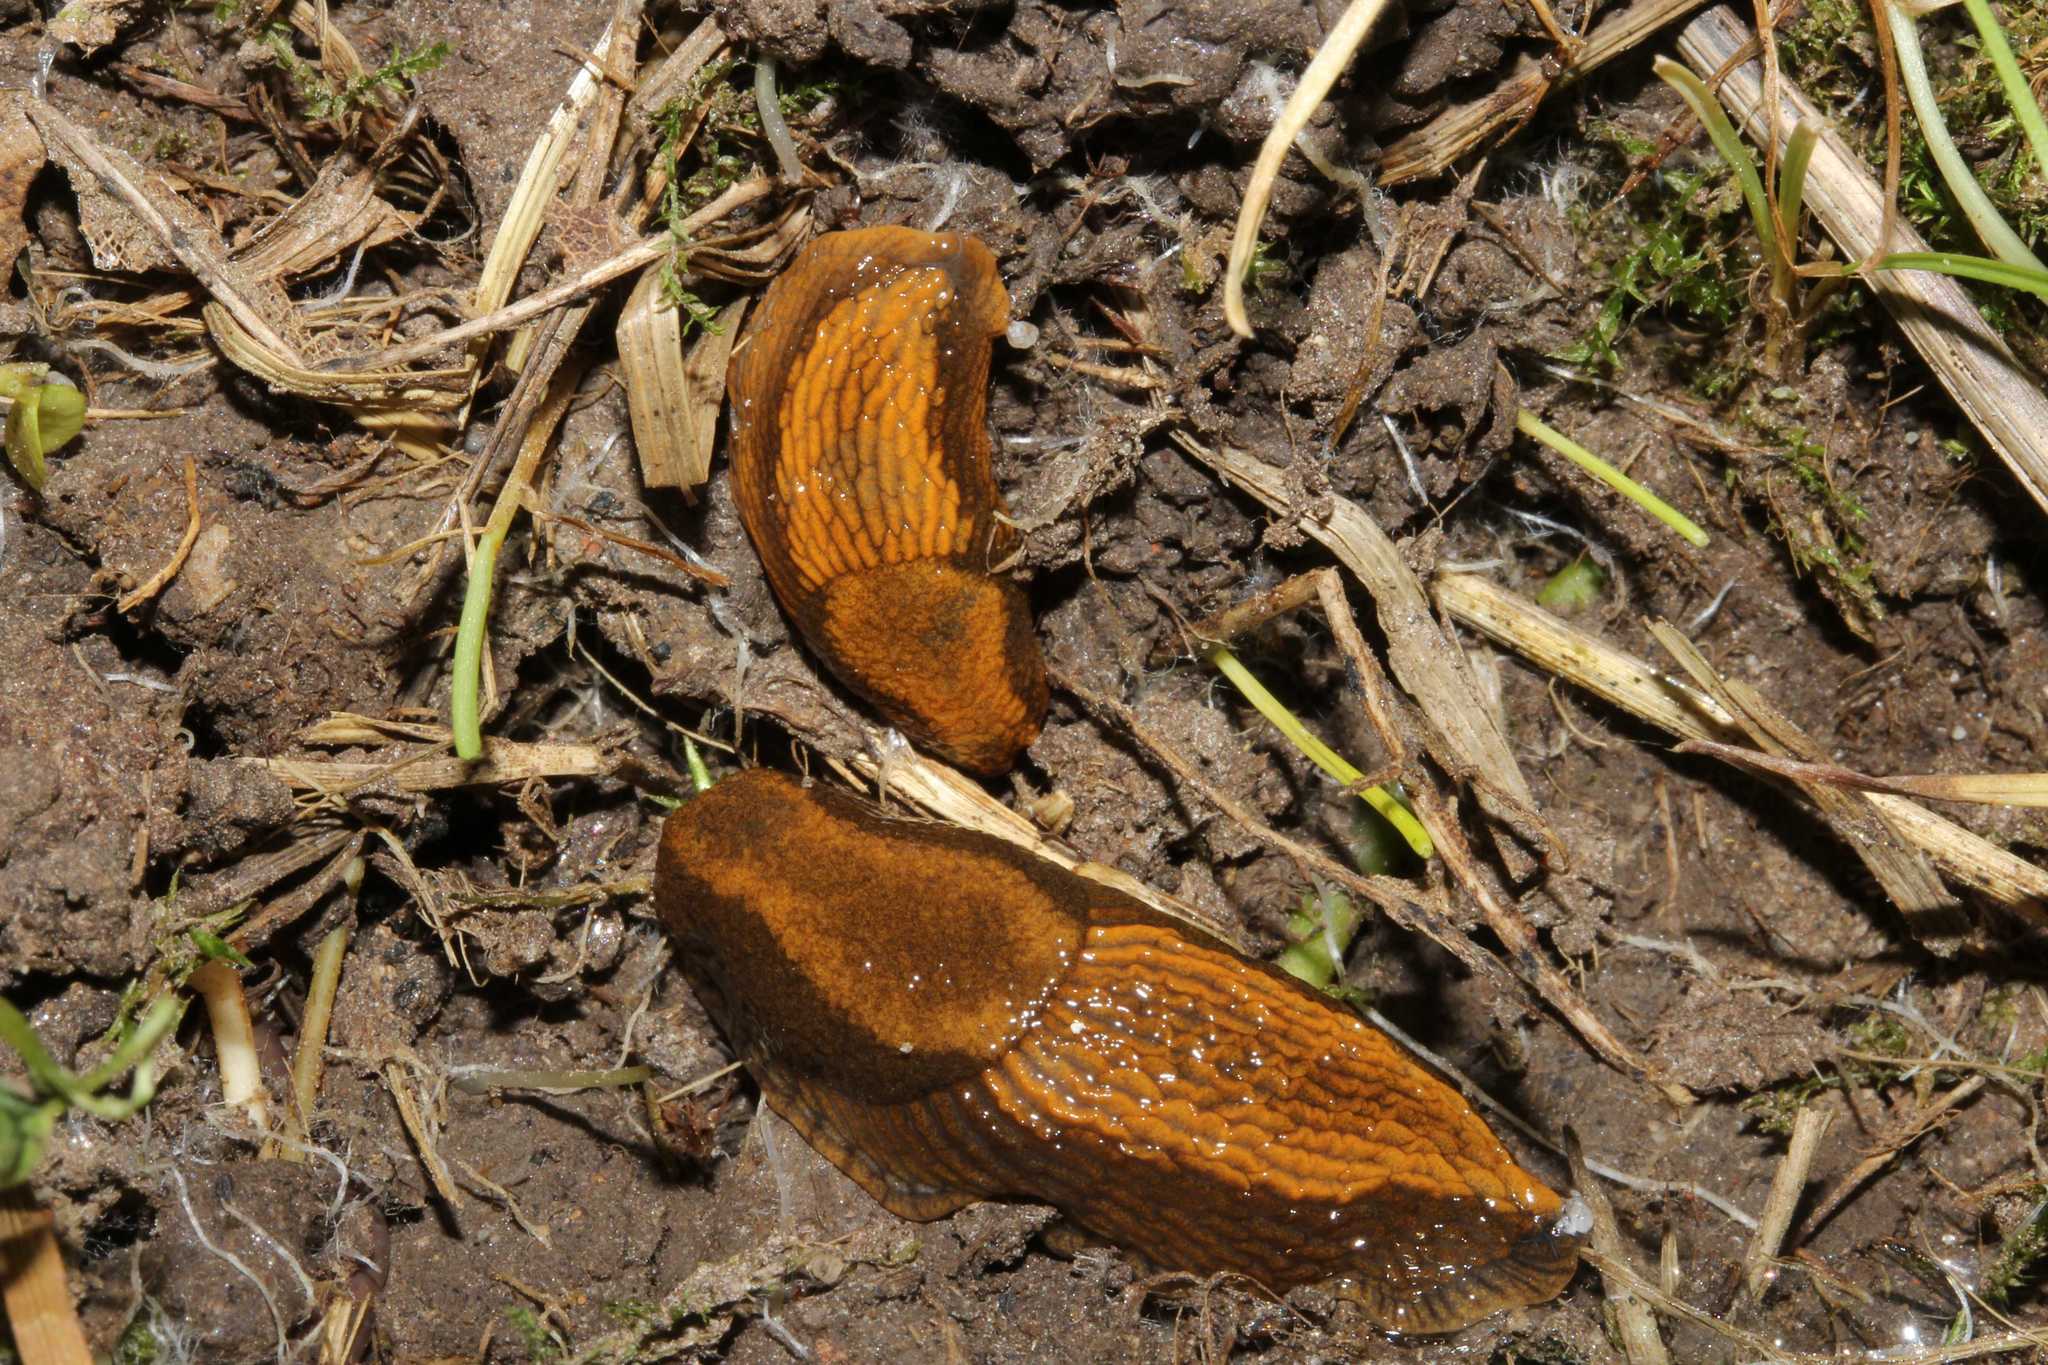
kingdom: Animalia
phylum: Mollusca
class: Gastropoda
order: Stylommatophora
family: Arionidae
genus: Arion
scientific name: Arion vulgaris
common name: Lusitanian slug
